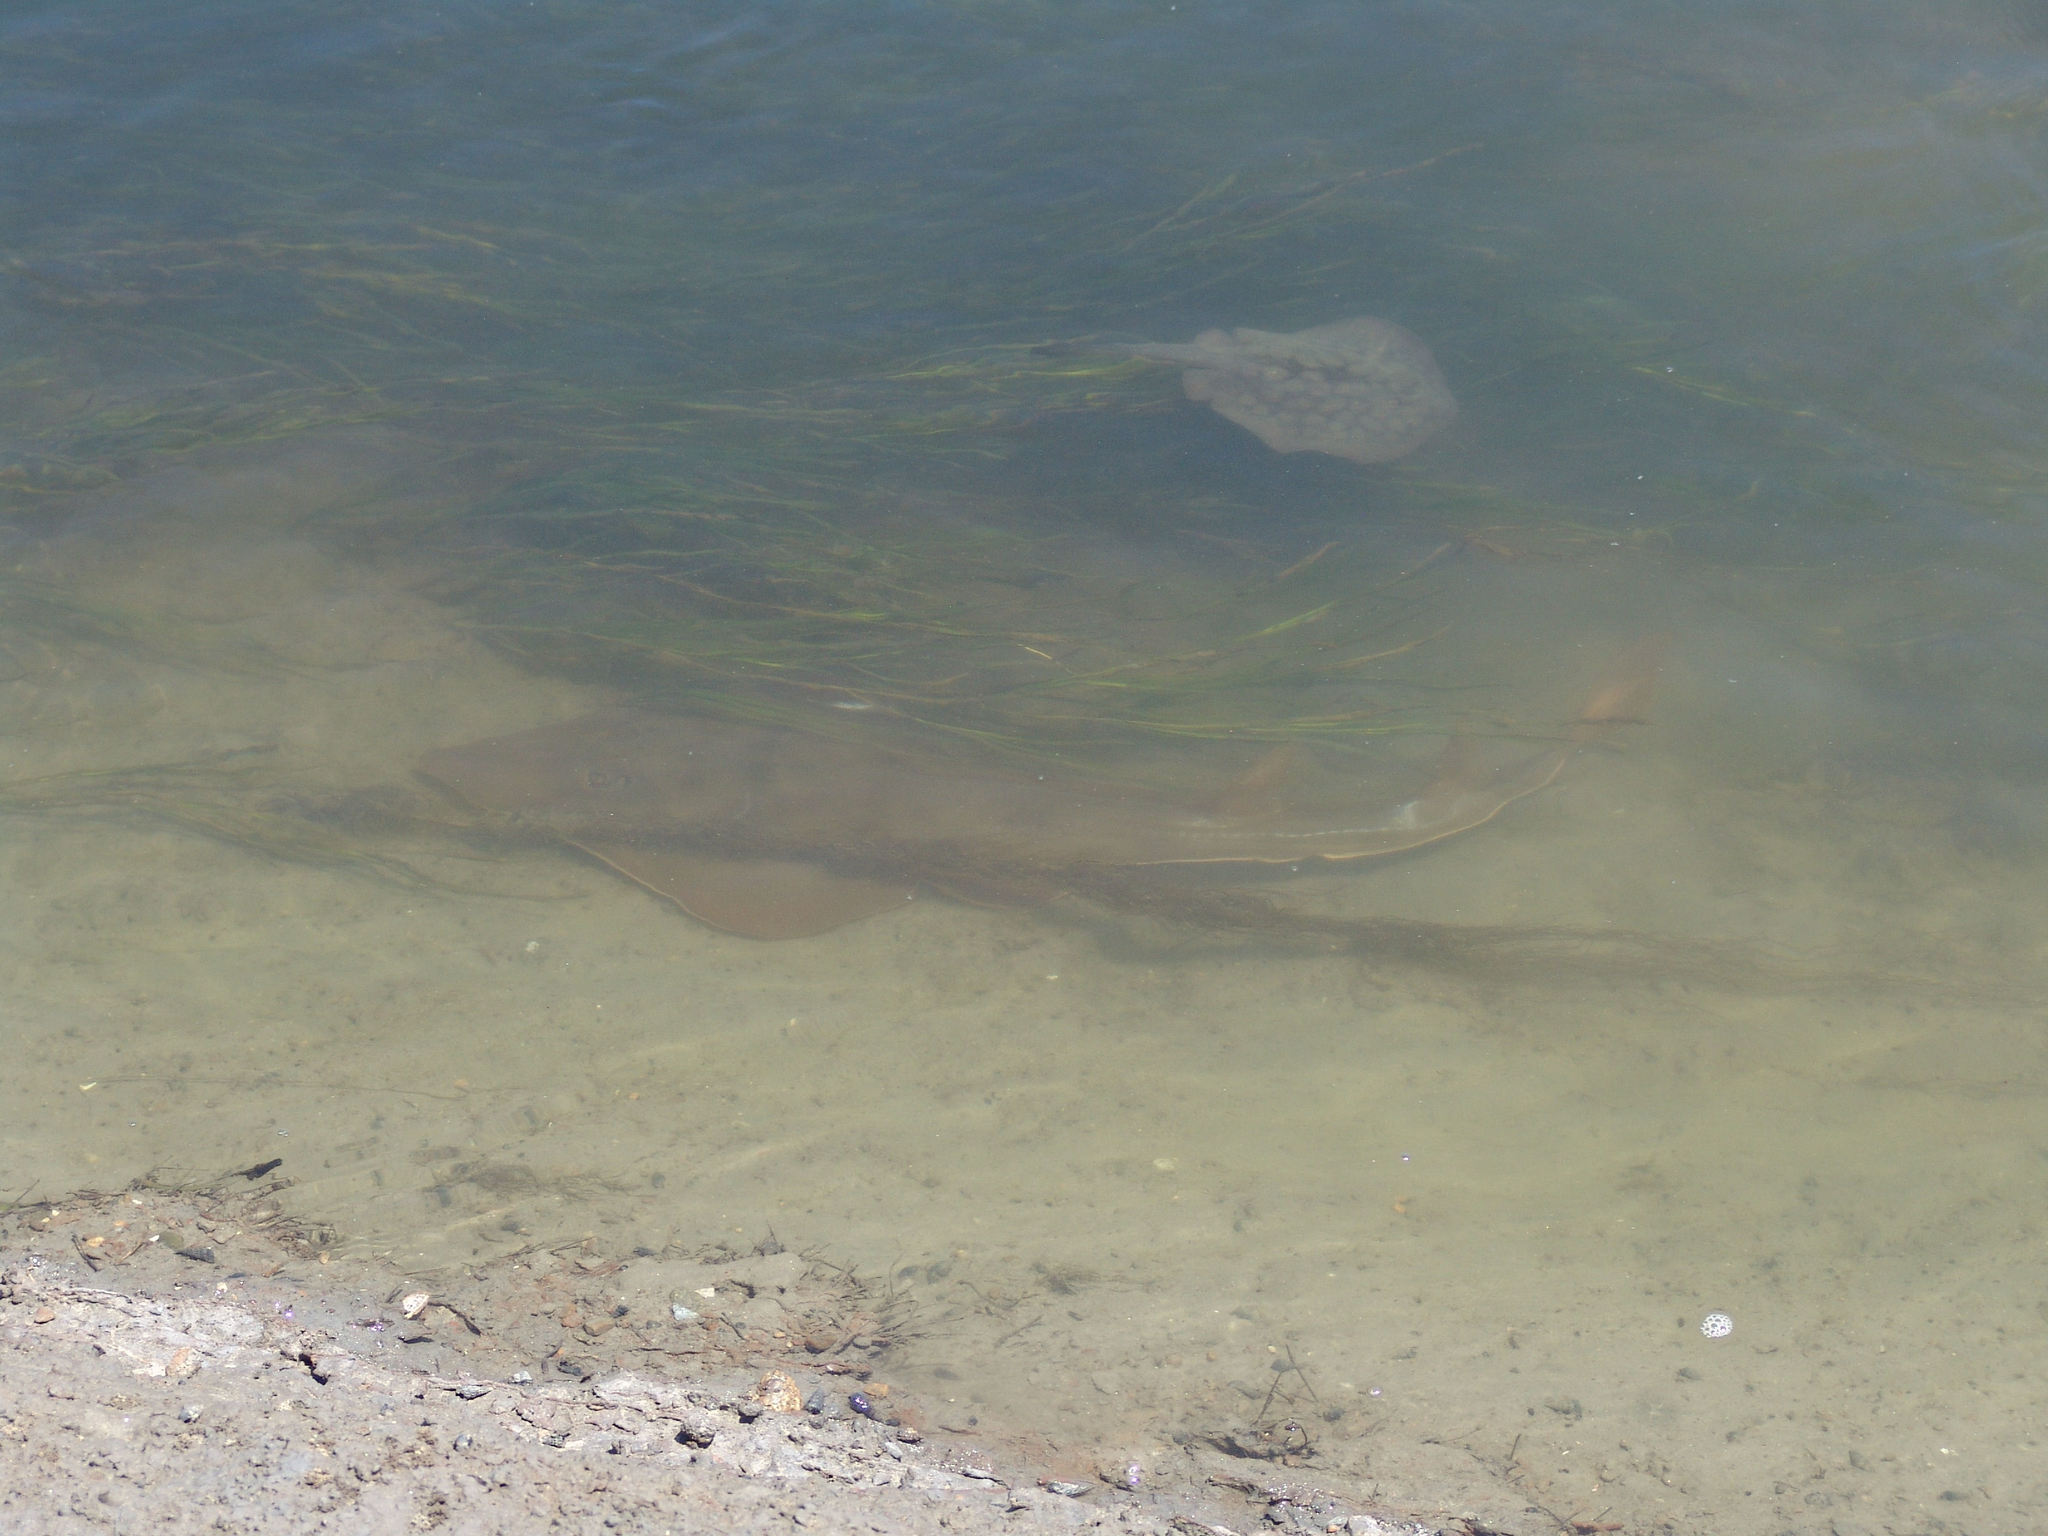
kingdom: Animalia
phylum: Chordata
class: Elasmobranchii
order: Myliobatiformes
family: Urolophidae
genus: Urolophus
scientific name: Urolophus halleri
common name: Round stingray
